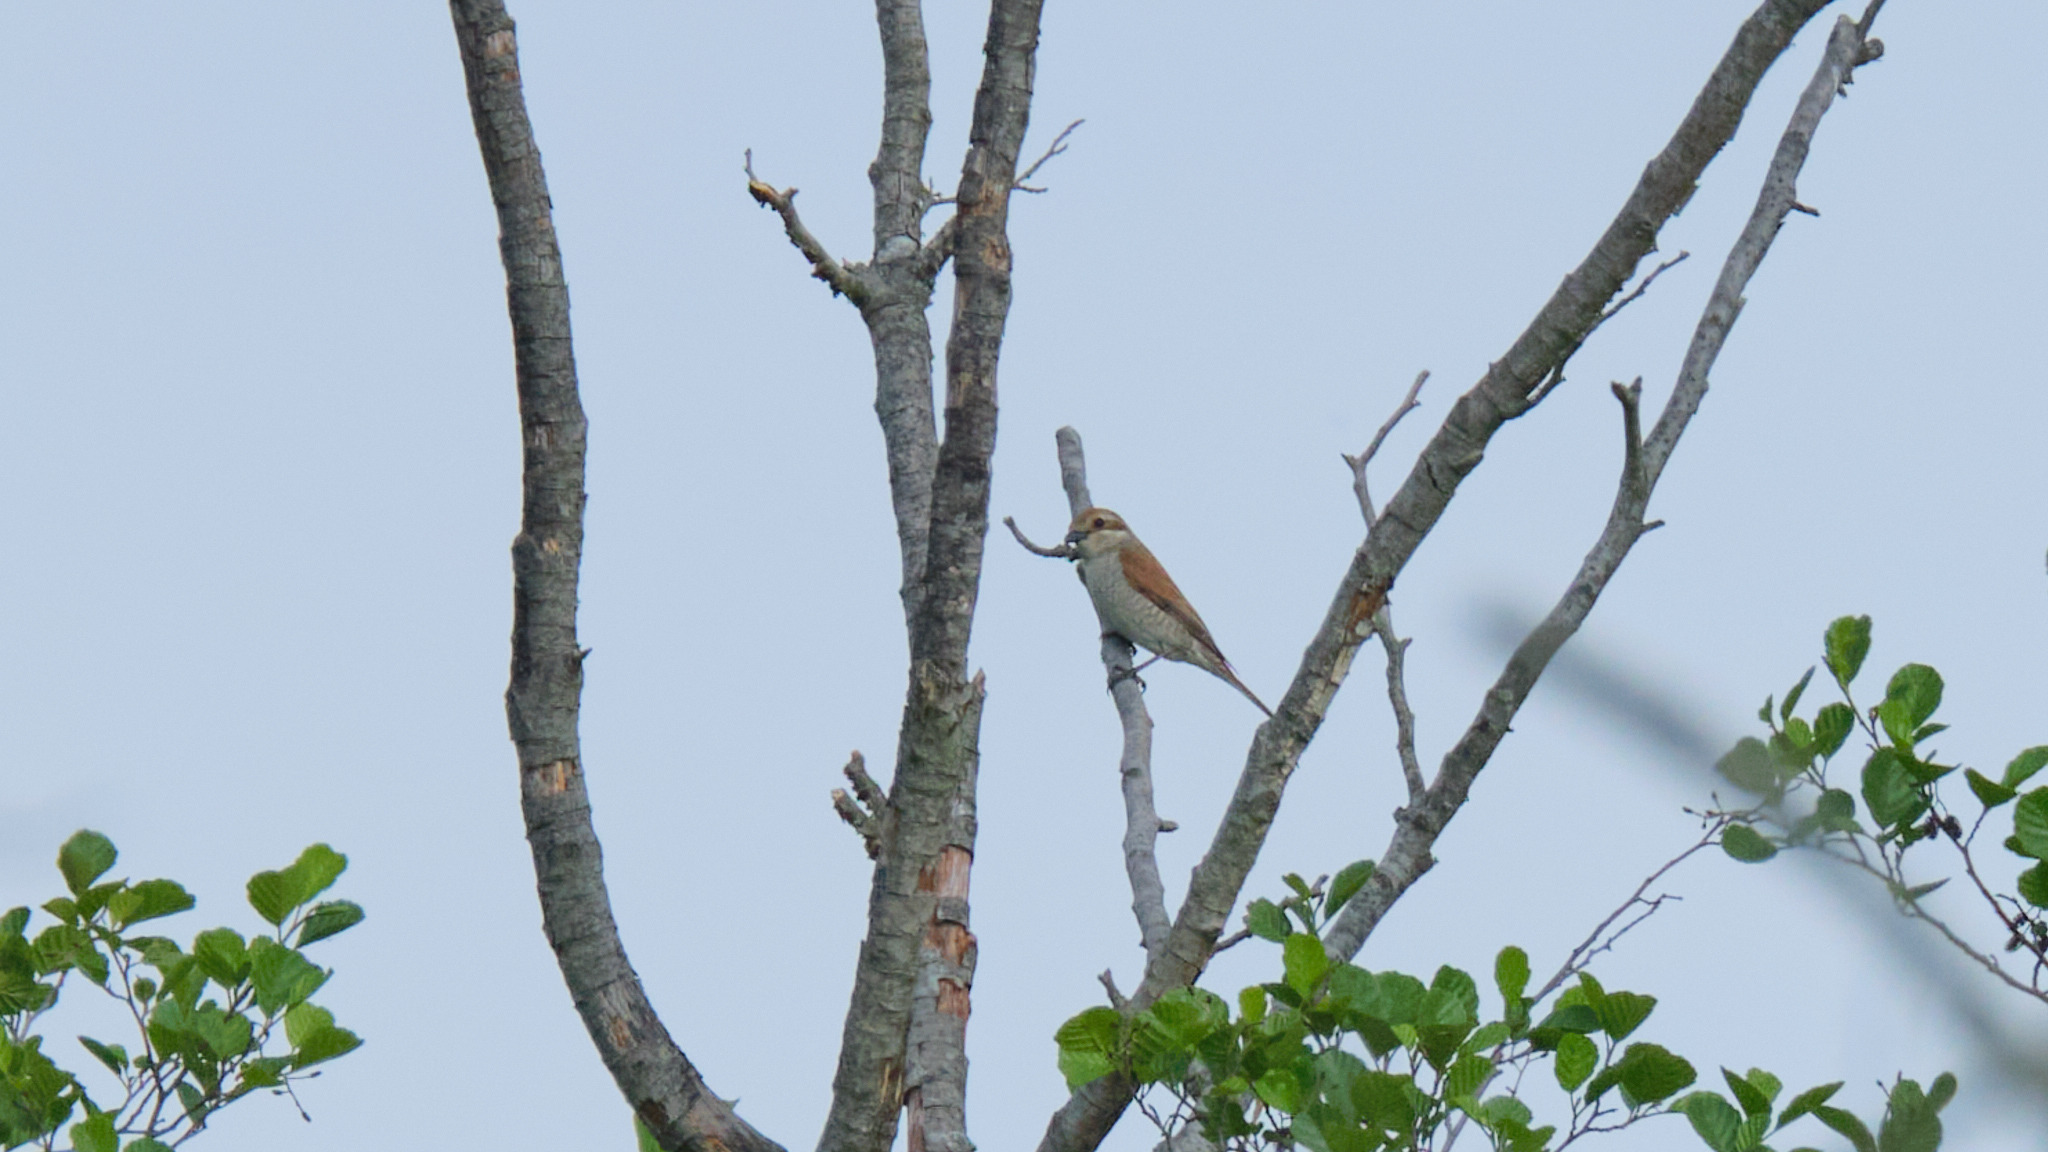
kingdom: Animalia
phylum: Chordata
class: Aves
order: Passeriformes
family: Laniidae
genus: Lanius
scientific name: Lanius collurio
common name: Red-backed shrike
